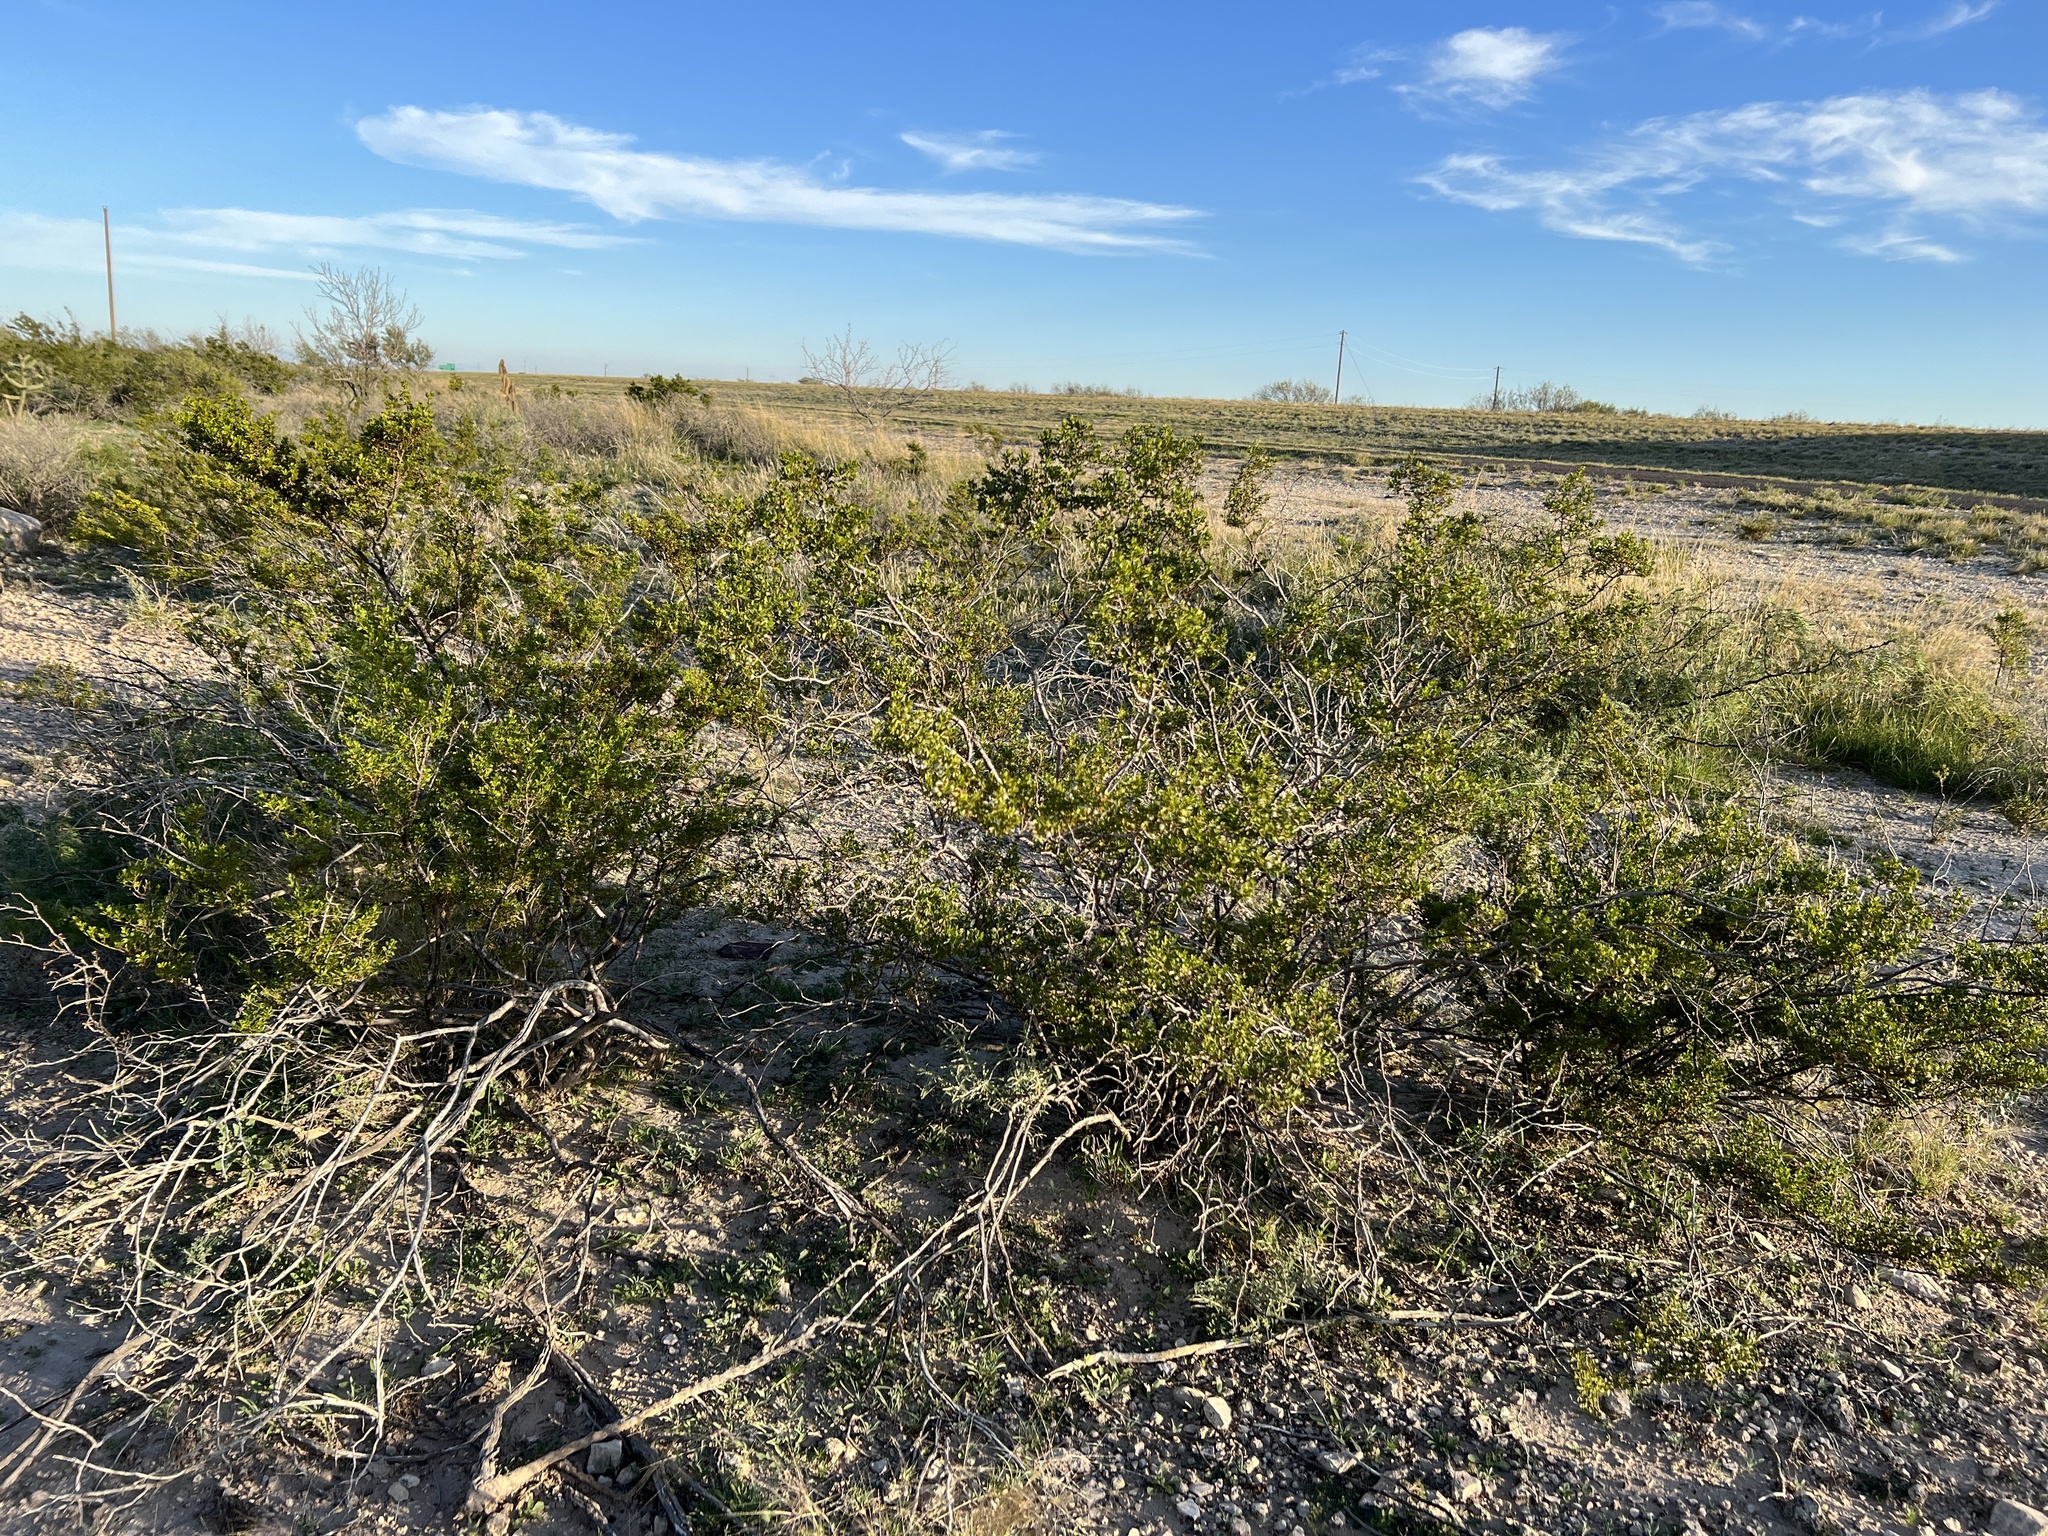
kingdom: Plantae
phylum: Tracheophyta
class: Magnoliopsida
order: Zygophyllales
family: Zygophyllaceae
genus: Larrea
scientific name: Larrea tridentata
